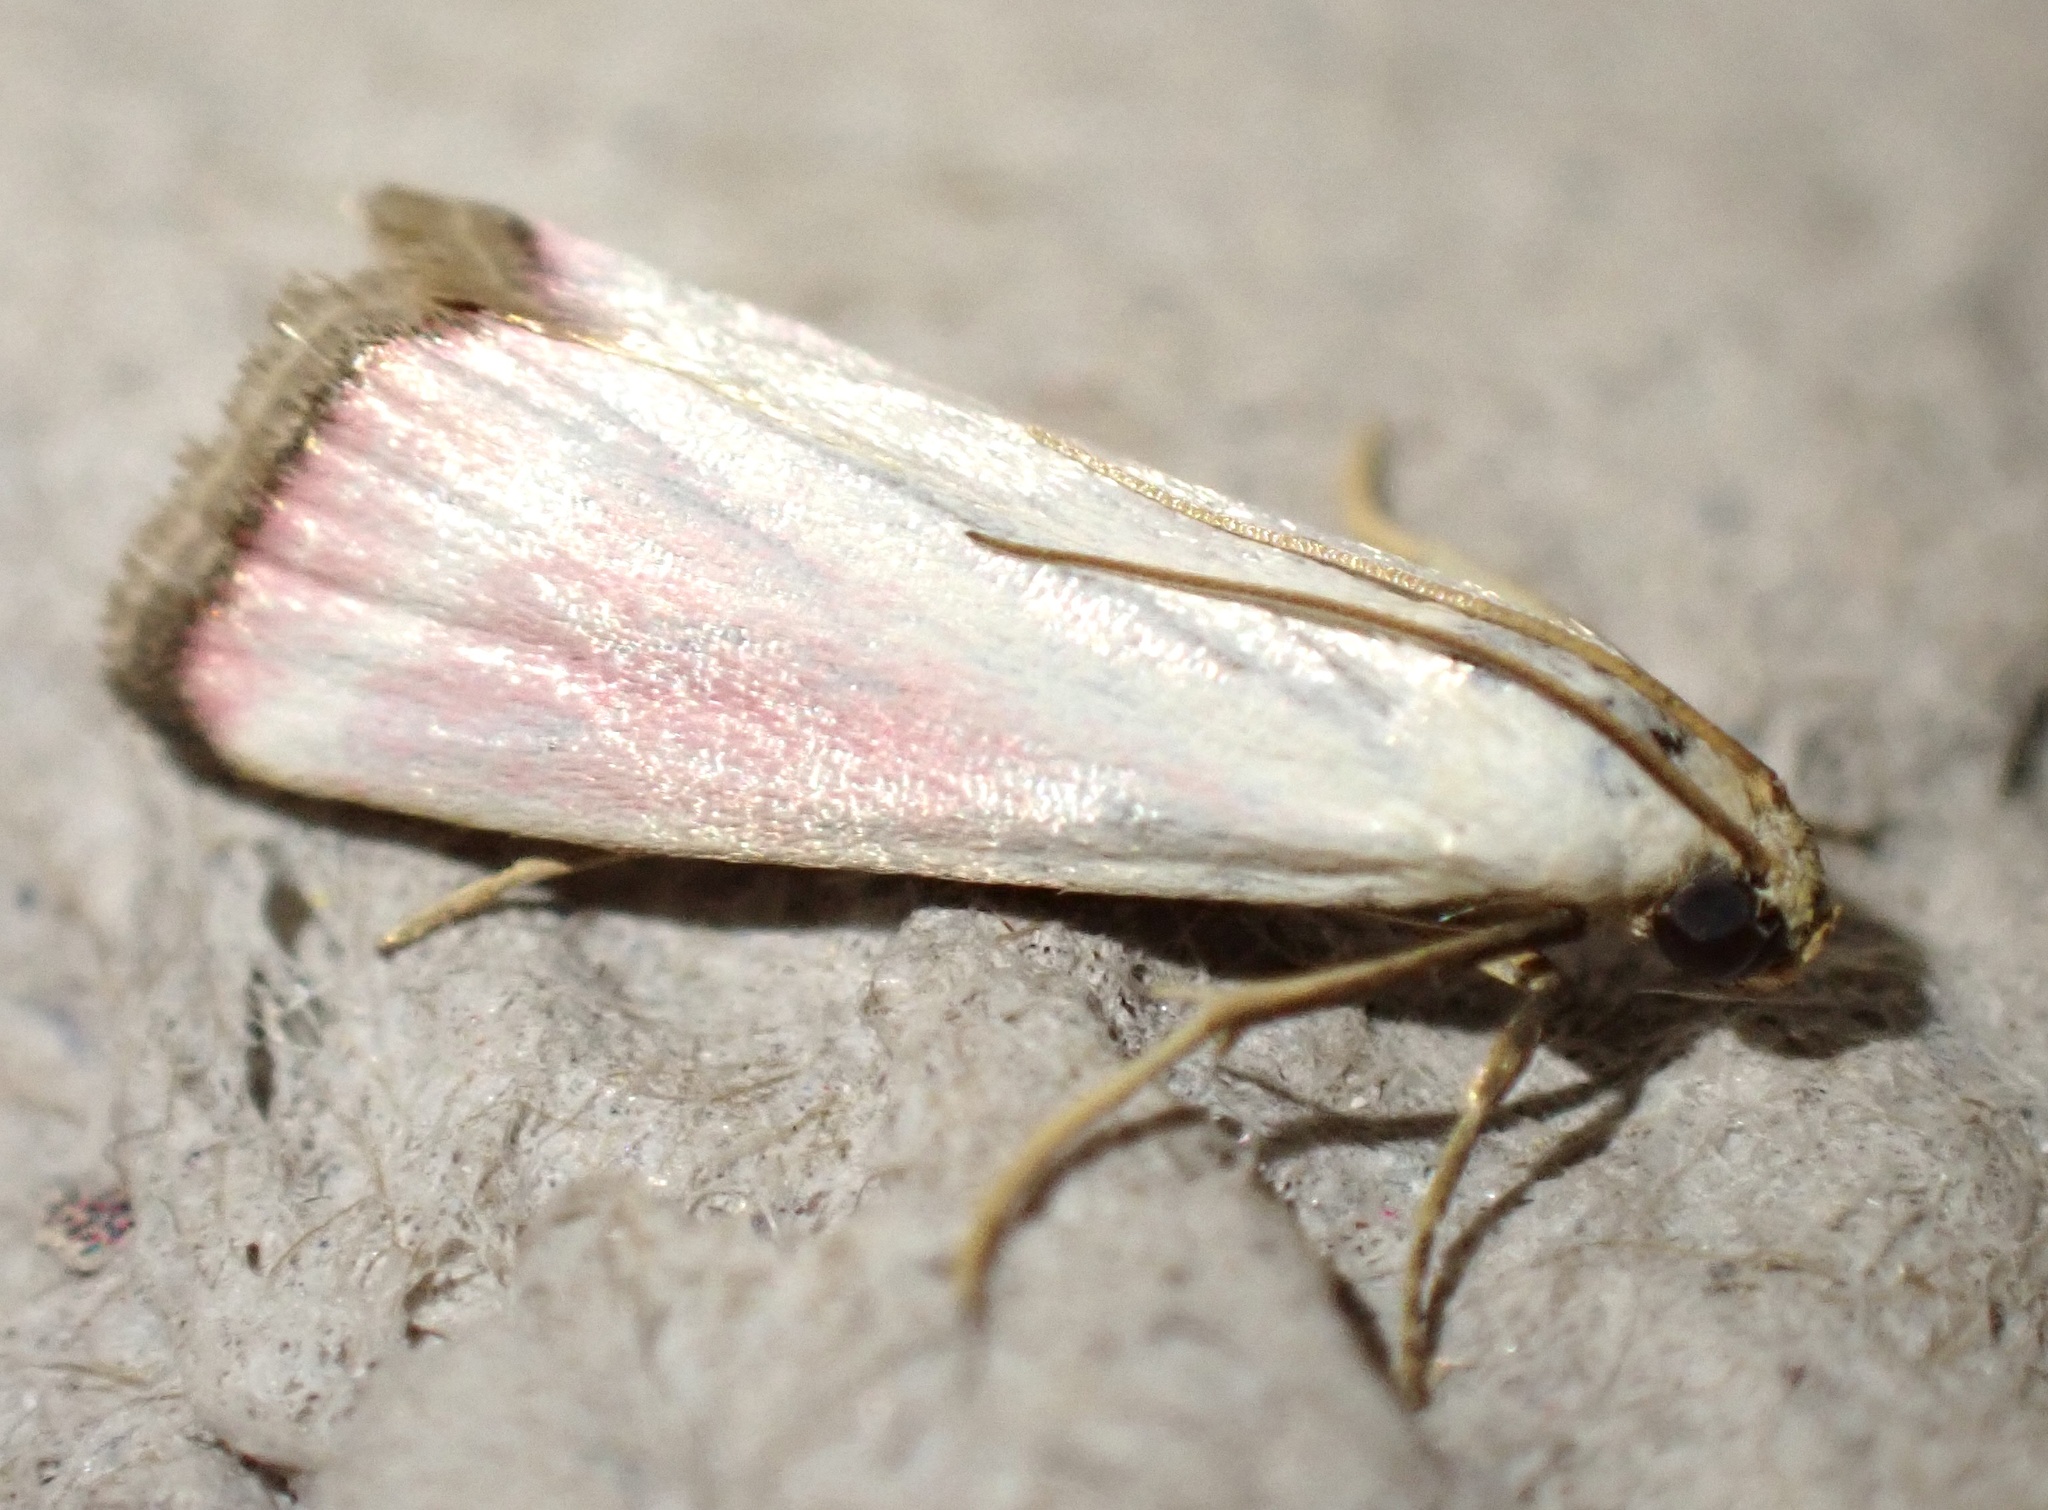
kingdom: Animalia
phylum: Arthropoda
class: Insecta
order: Lepidoptera
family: Pyralidae
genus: Eurhodope
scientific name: Eurhodope rosella
